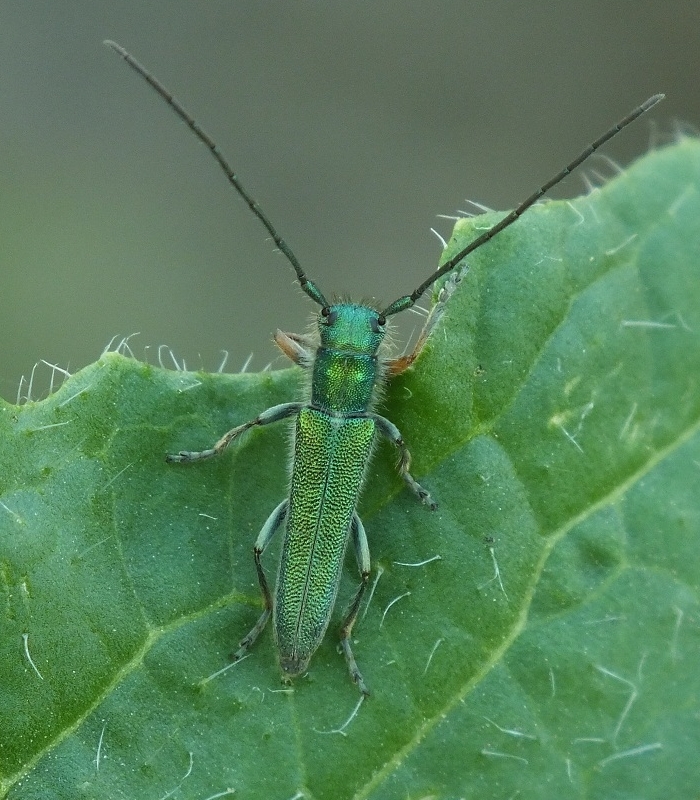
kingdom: Animalia
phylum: Arthropoda
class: Insecta
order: Coleoptera
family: Cerambycidae
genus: Phytoecia
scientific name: Phytoecia caerulea
